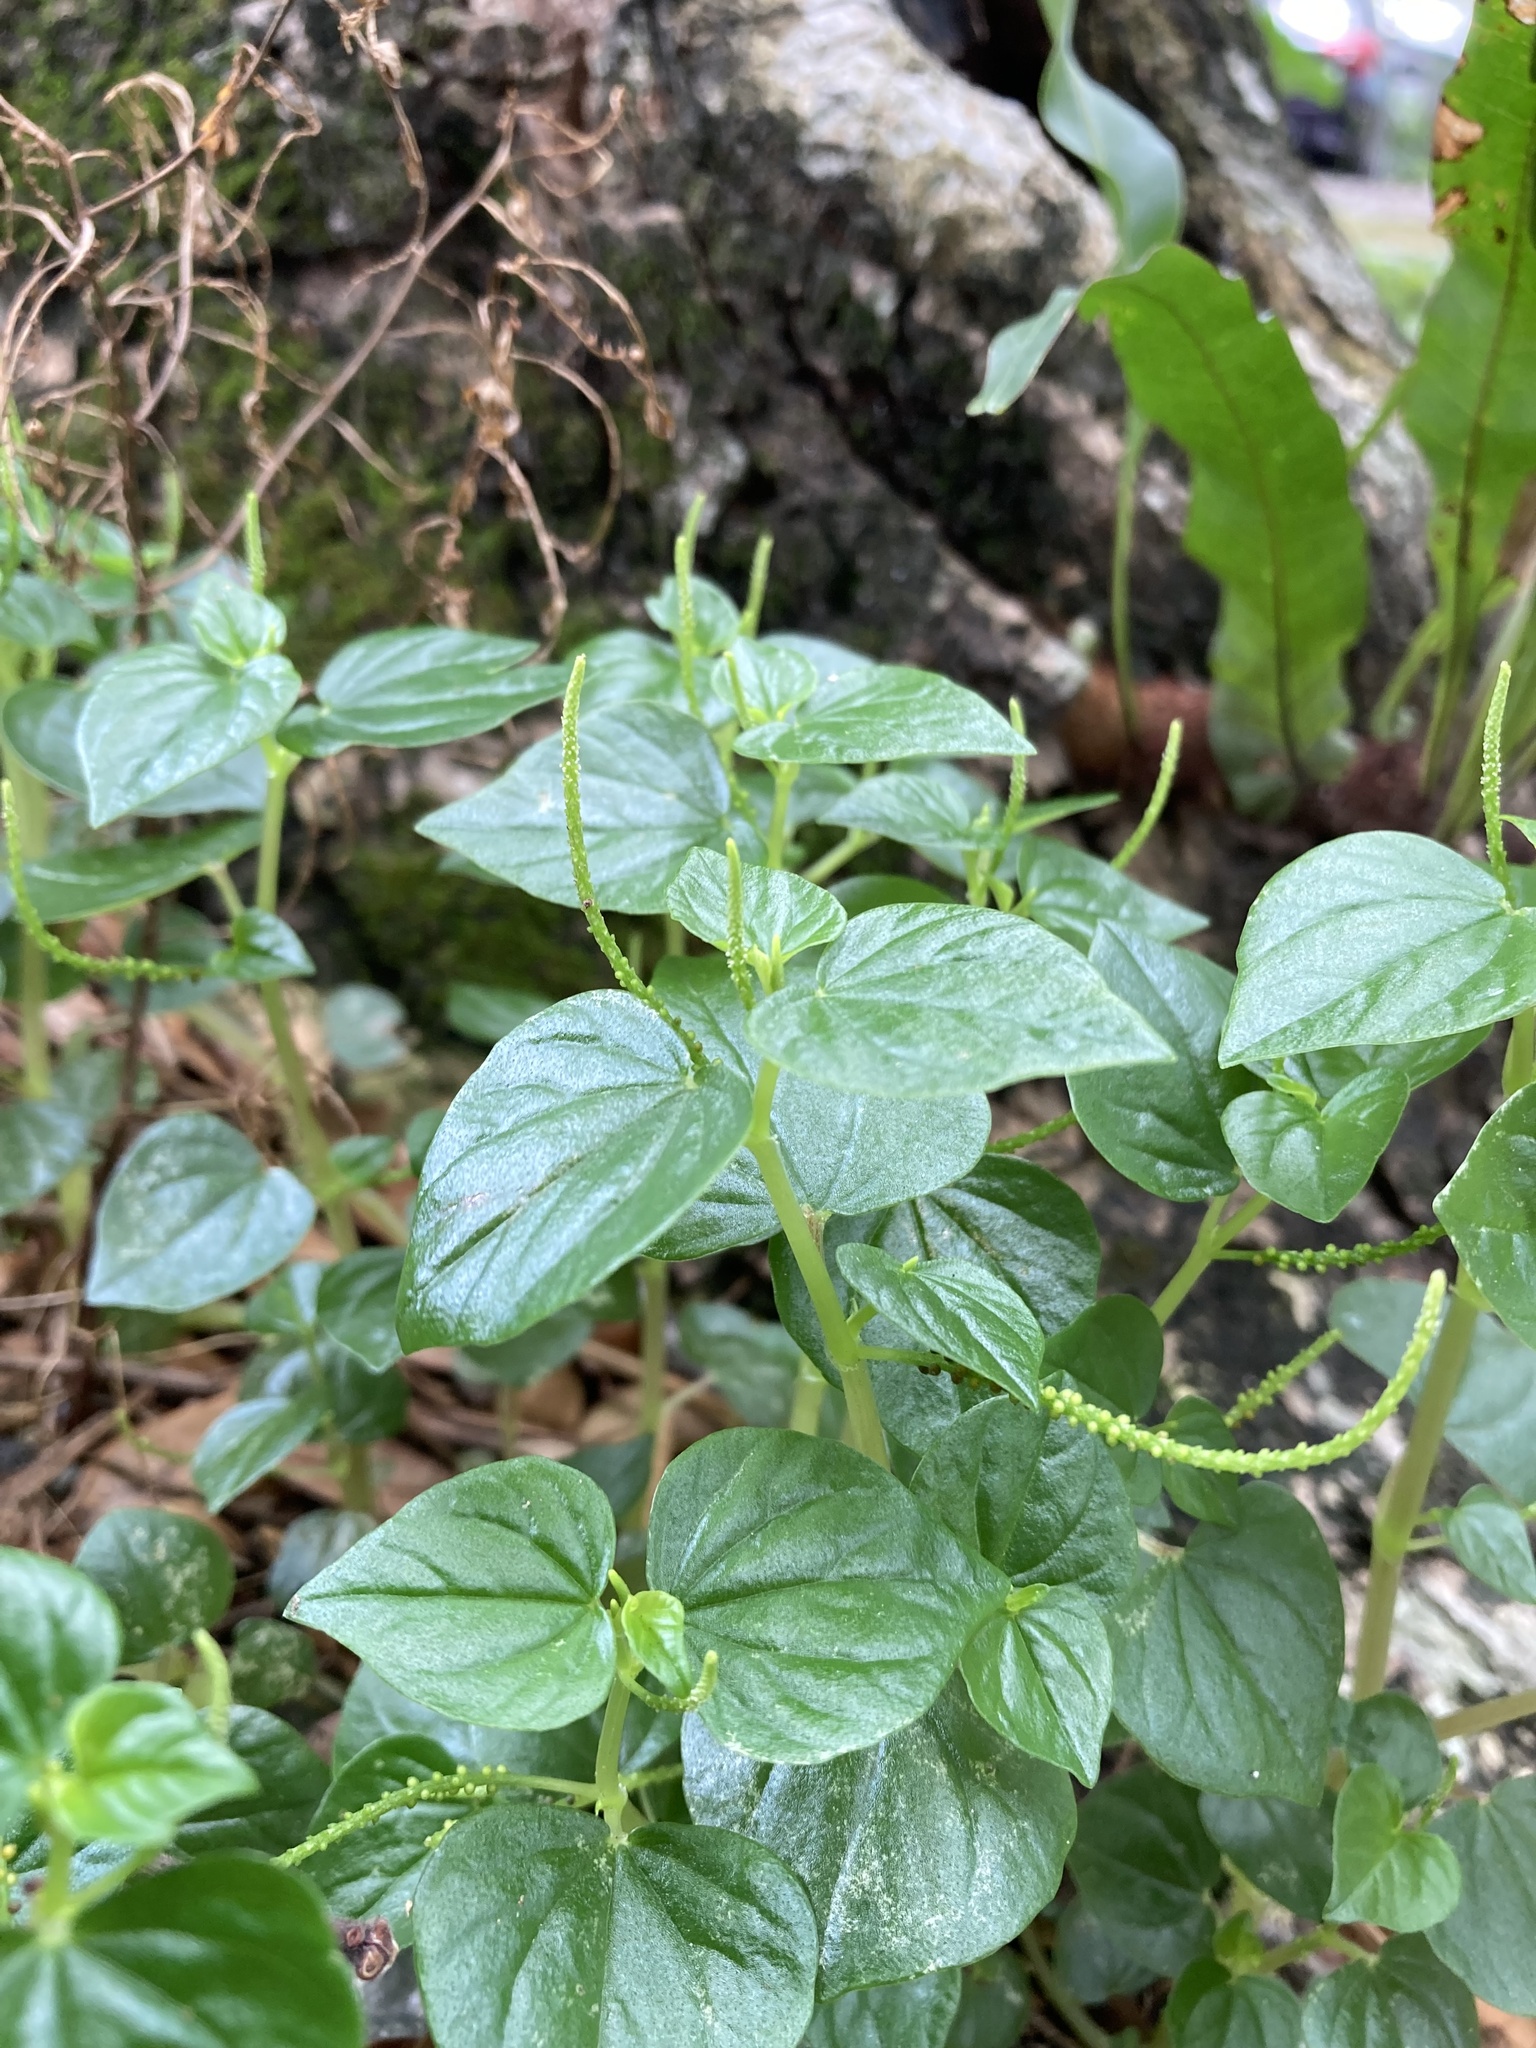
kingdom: Plantae
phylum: Tracheophyta
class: Magnoliopsida
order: Piperales
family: Piperaceae
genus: Peperomia
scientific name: Peperomia pellucida
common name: Man to man
